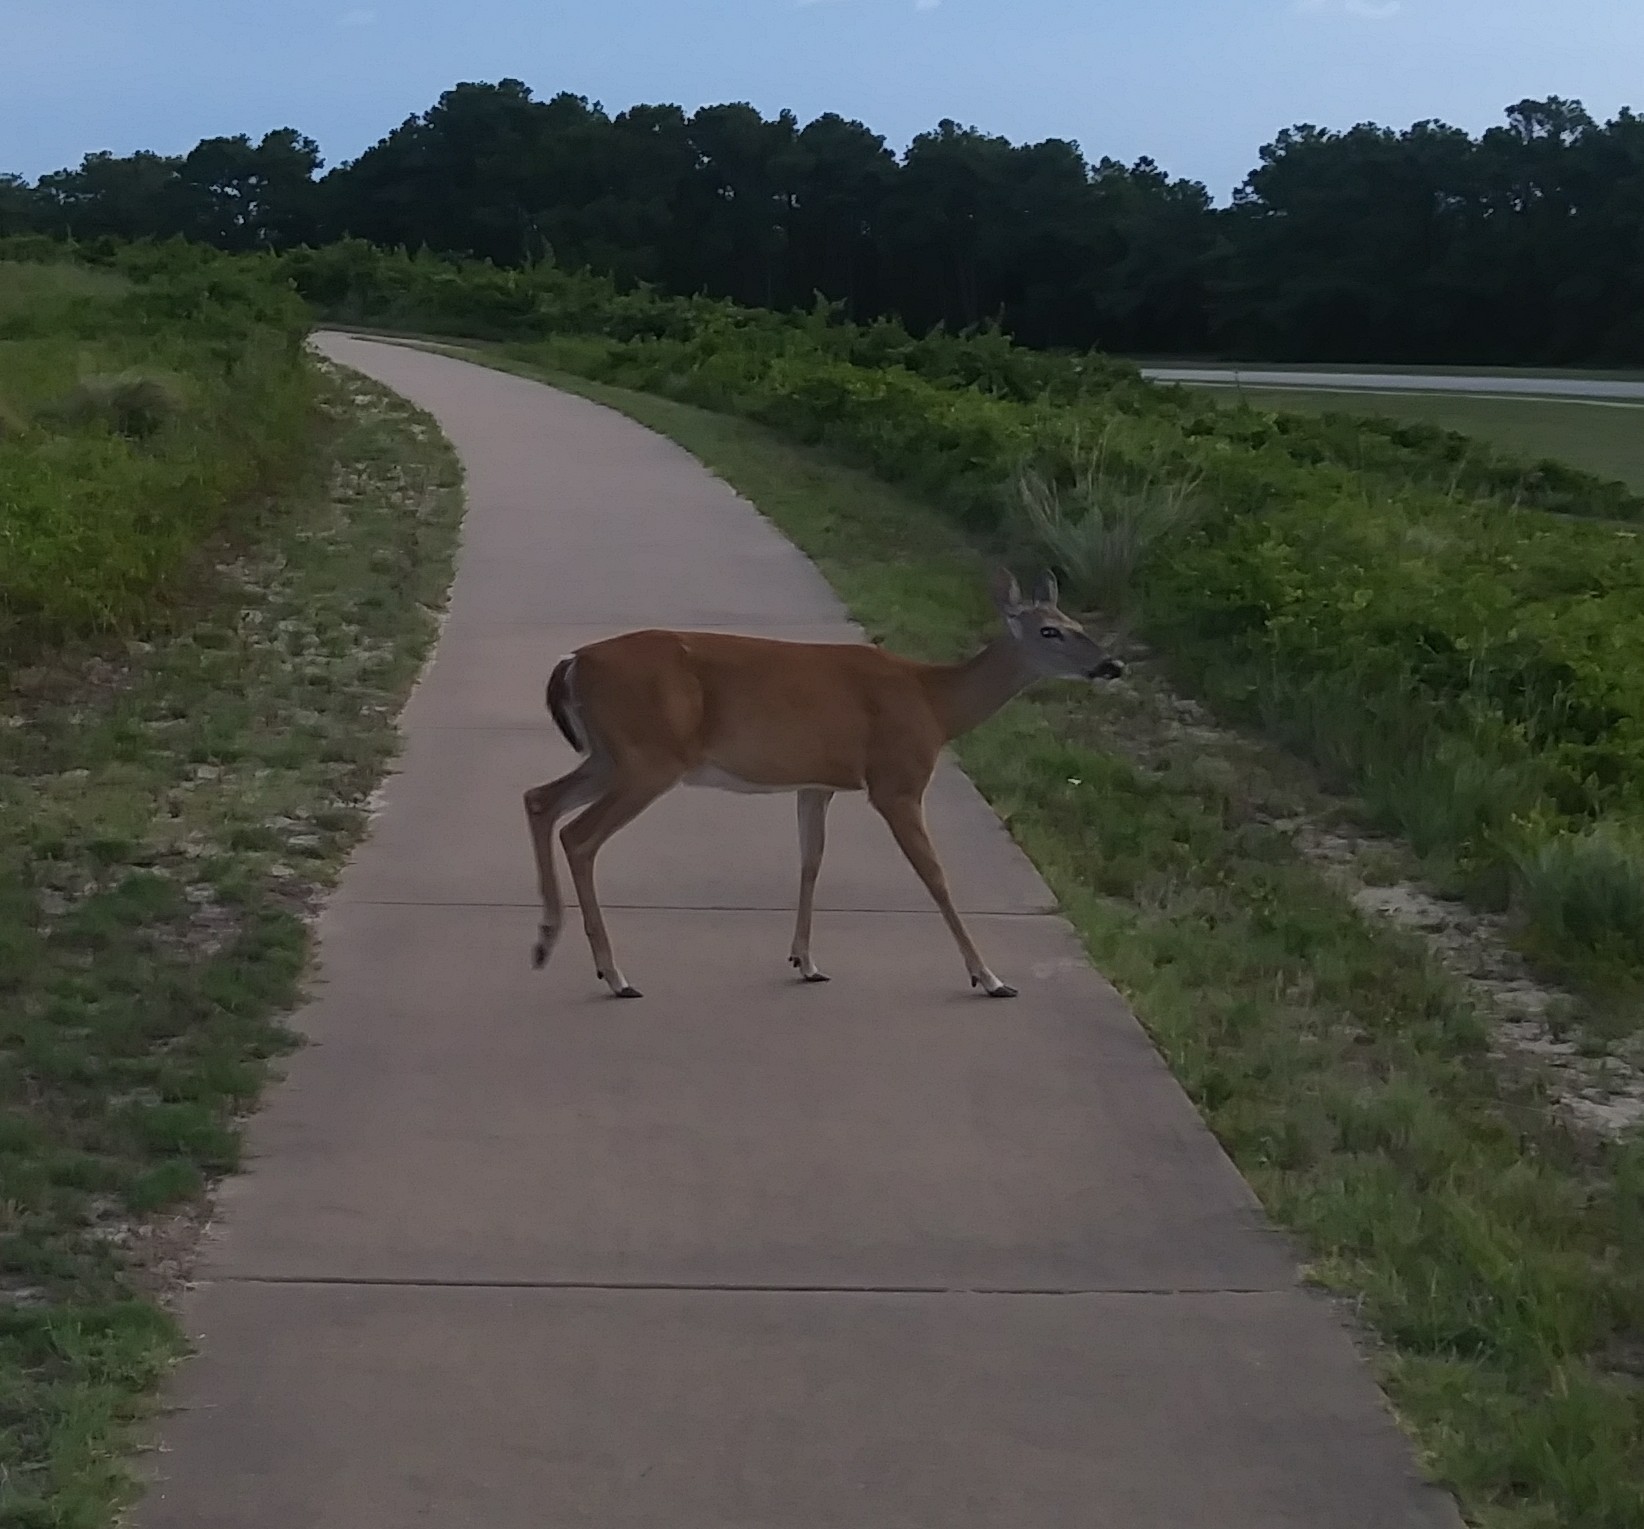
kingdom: Animalia
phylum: Chordata
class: Mammalia
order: Artiodactyla
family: Cervidae
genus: Odocoileus
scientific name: Odocoileus virginianus
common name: White-tailed deer
